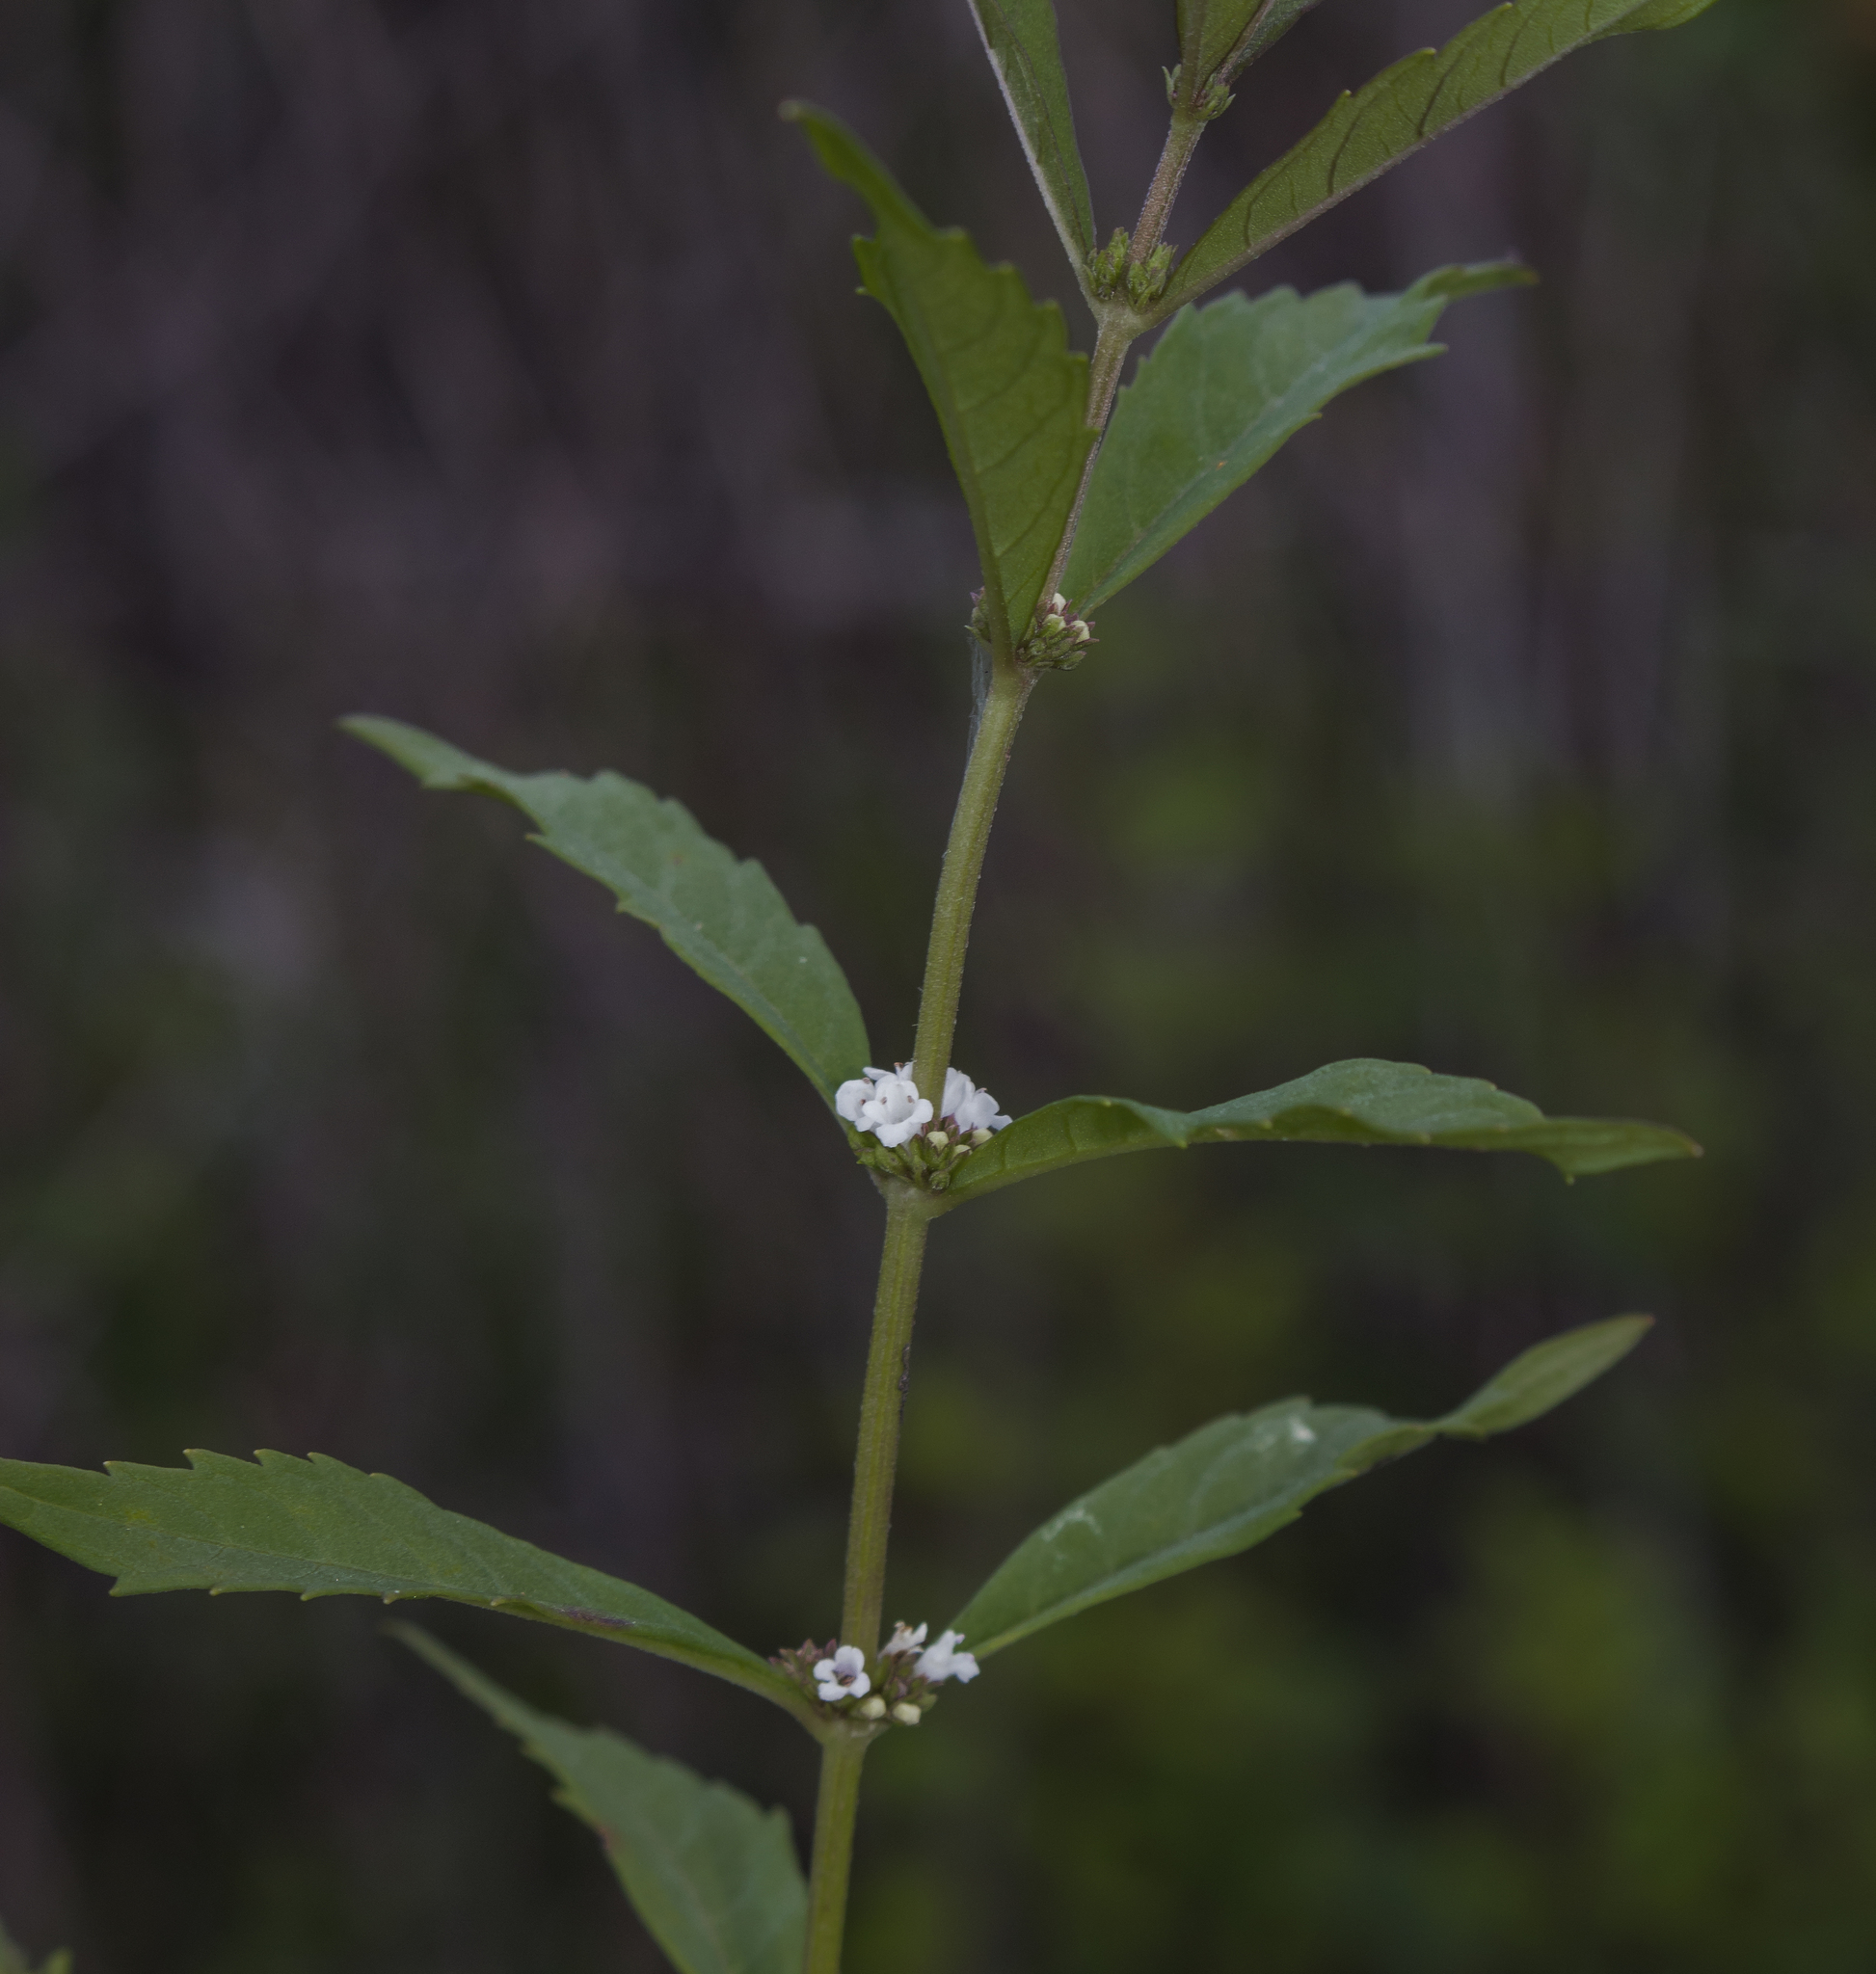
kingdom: Plantae
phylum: Tracheophyta
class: Magnoliopsida
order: Lamiales
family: Lamiaceae
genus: Lycopus
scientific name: Lycopus uniflorus
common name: Northern bugleweed
